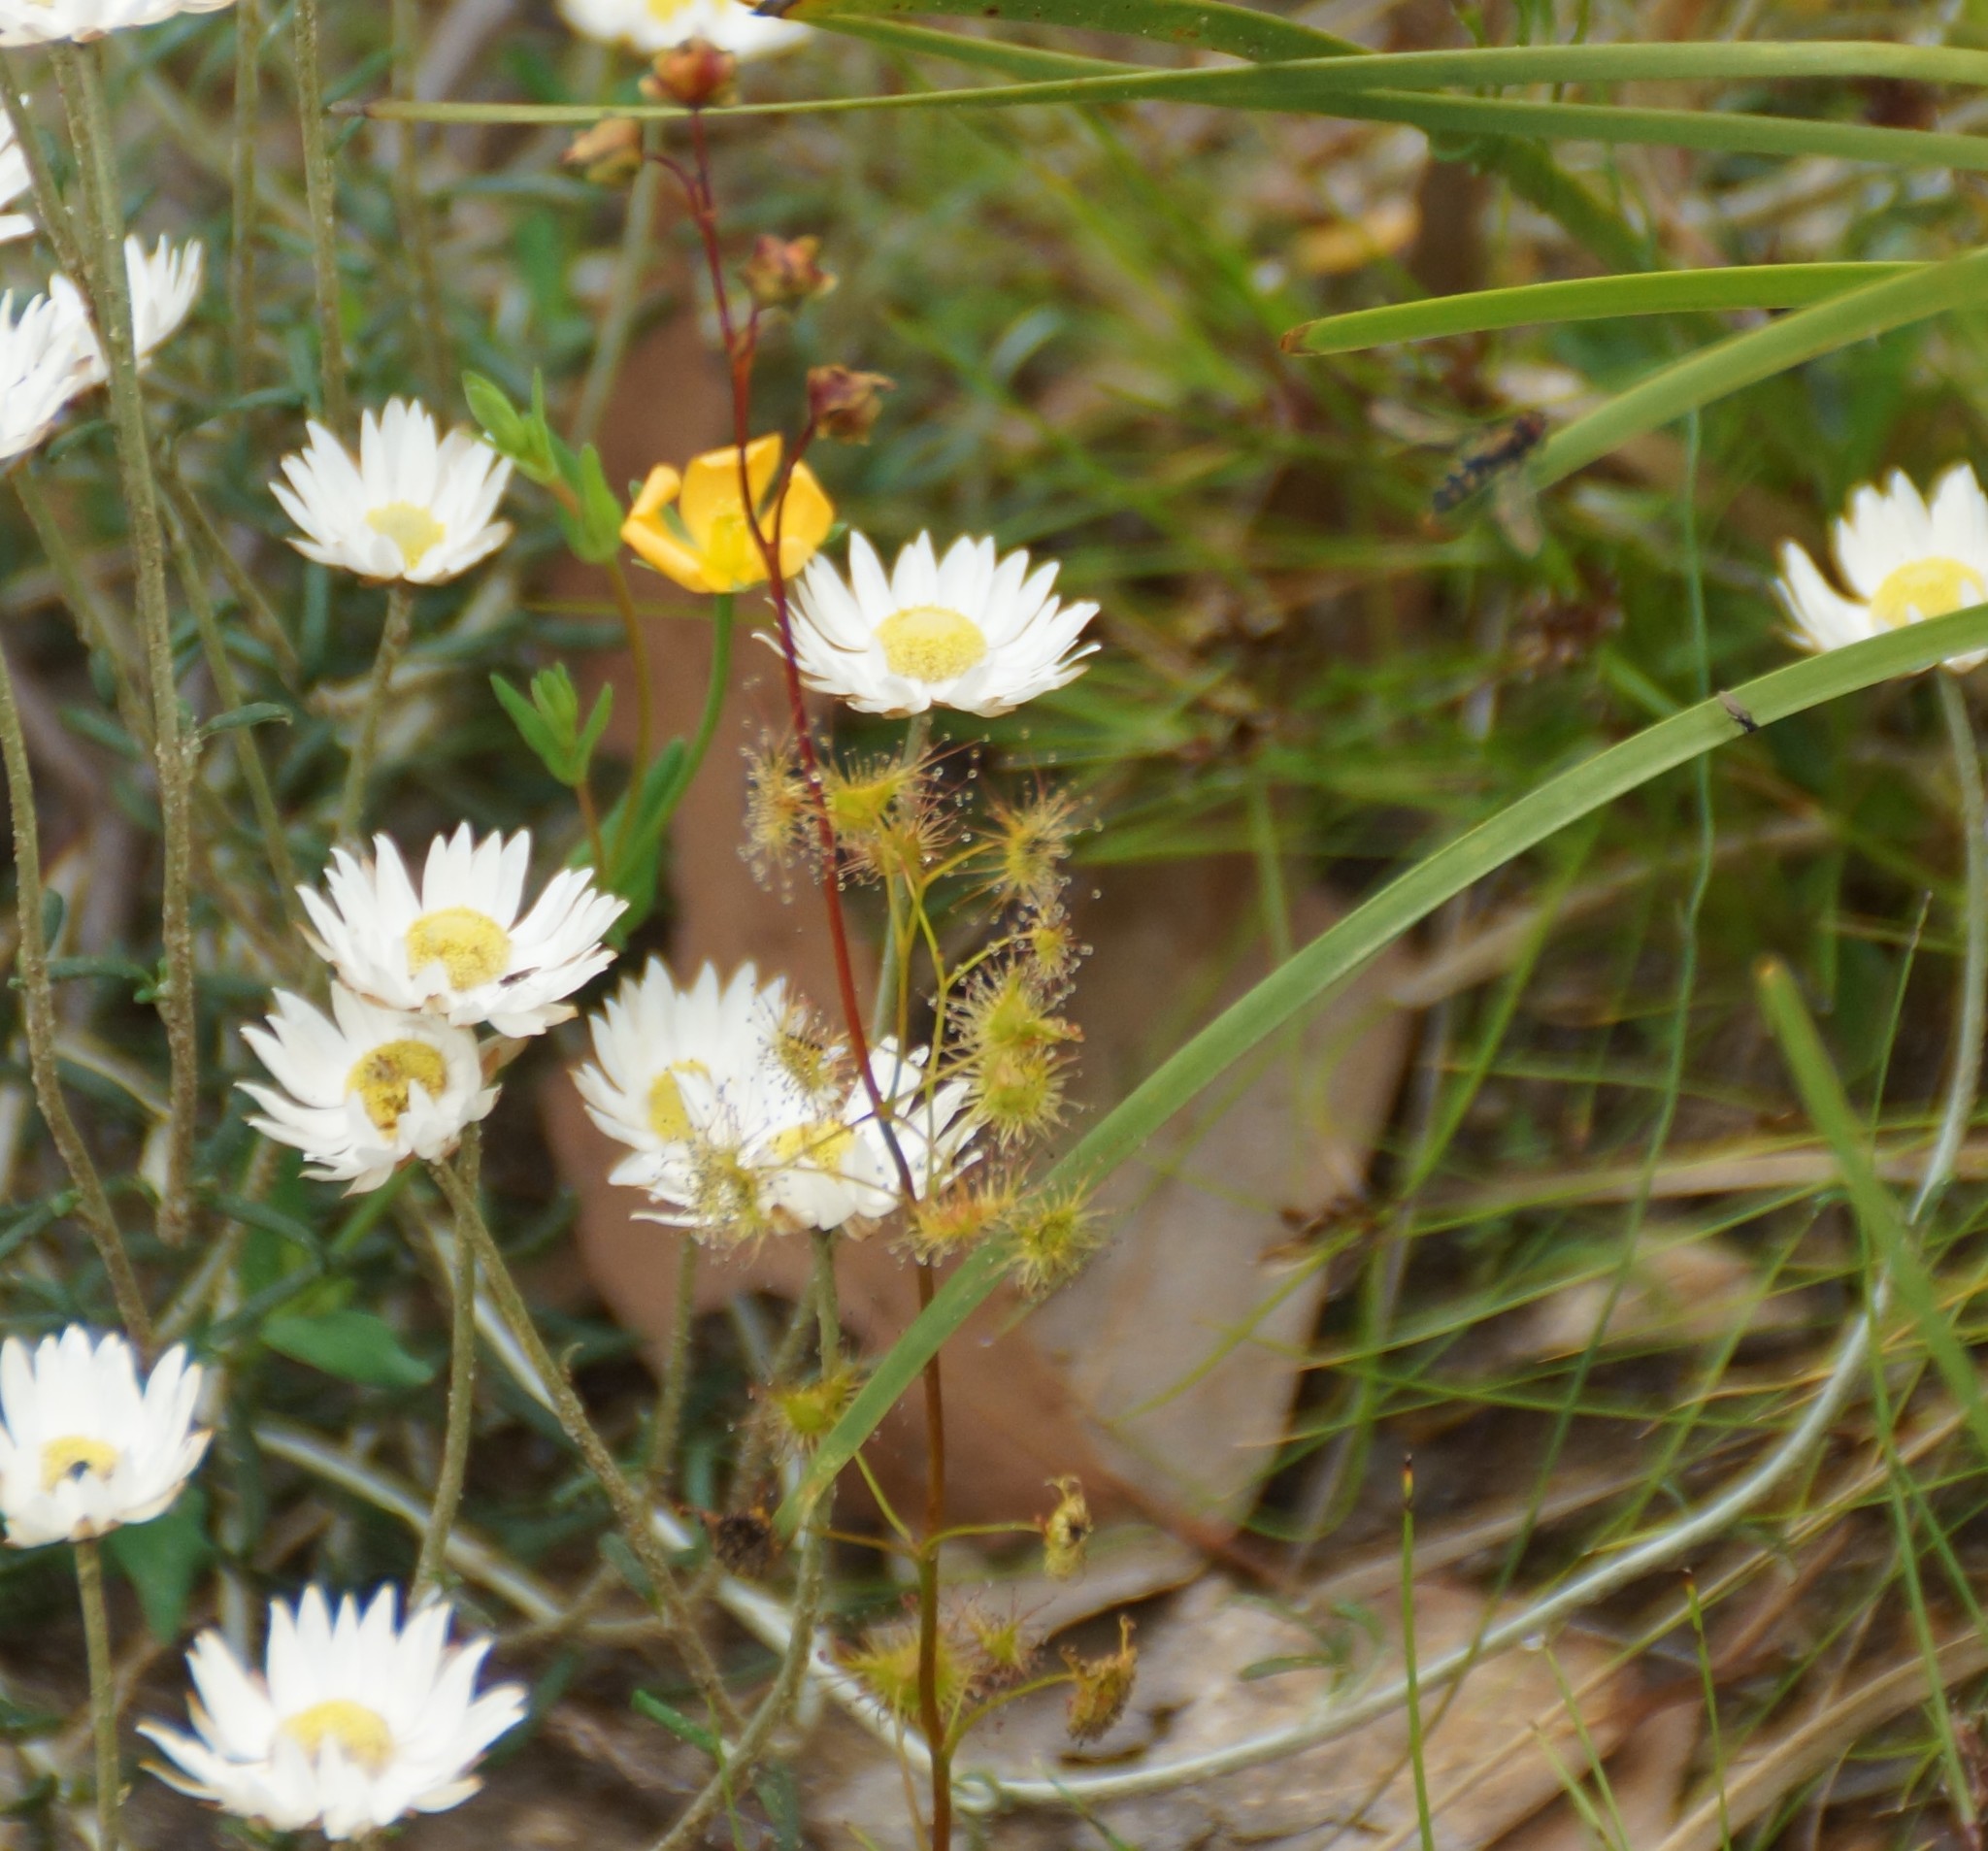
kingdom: Plantae
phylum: Tracheophyta
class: Magnoliopsida
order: Caryophyllales
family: Droseraceae
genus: Drosera
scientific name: Drosera peltata
